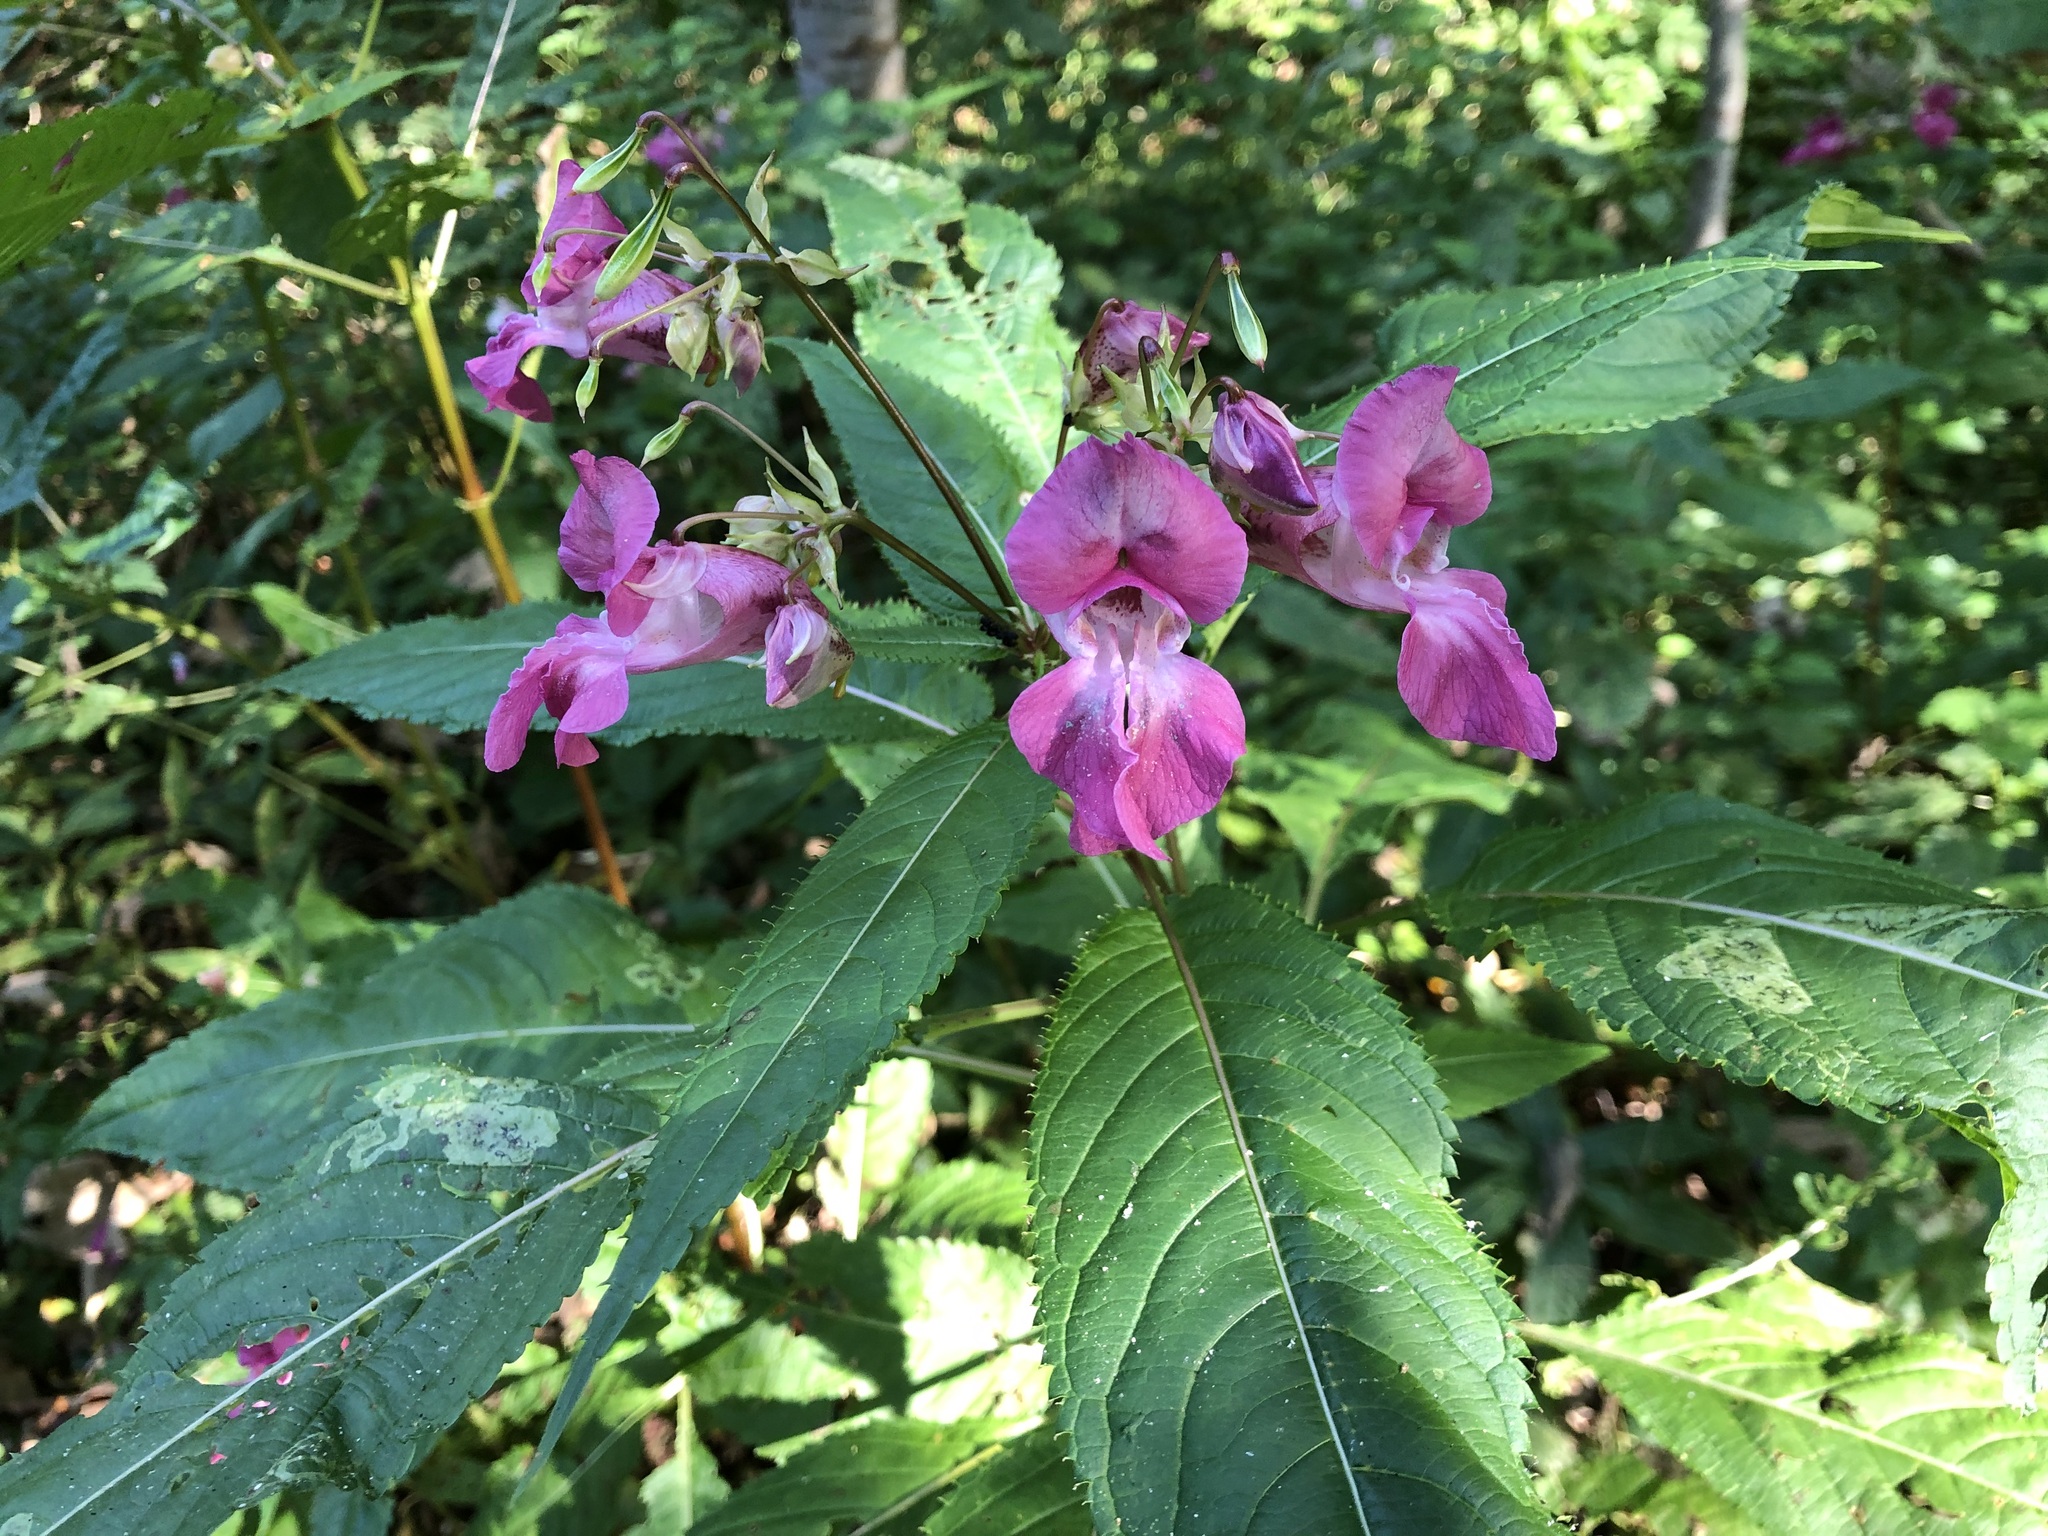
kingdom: Plantae
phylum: Tracheophyta
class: Magnoliopsida
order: Ericales
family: Balsaminaceae
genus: Impatiens
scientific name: Impatiens glandulifera
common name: Himalayan balsam
